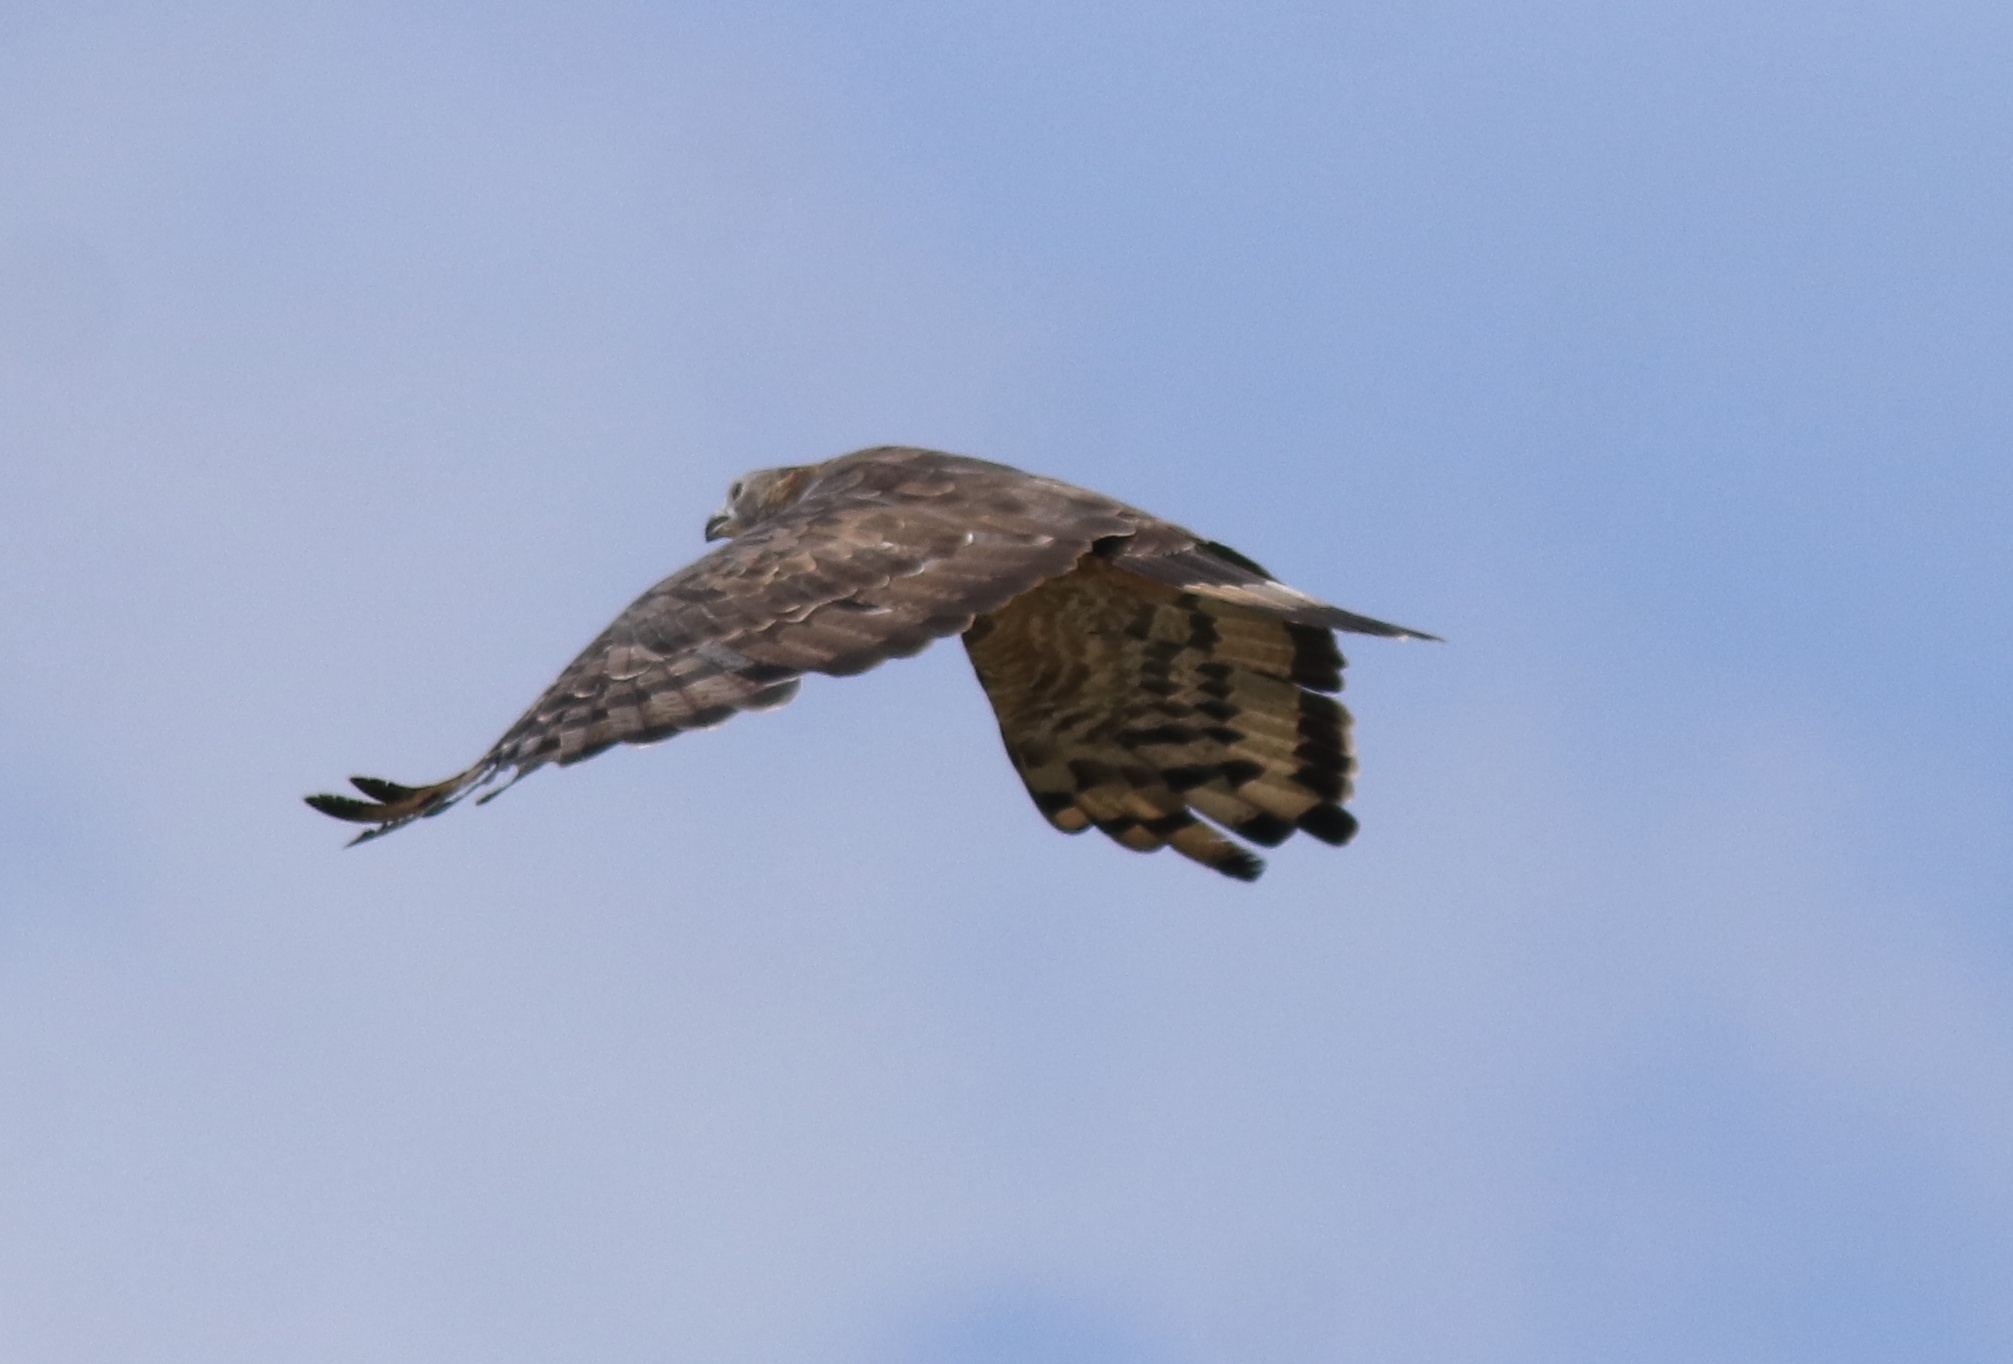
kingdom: Animalia
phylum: Chordata
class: Aves
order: Accipitriformes
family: Accipitridae
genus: Pernis
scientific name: Pernis ptilorhynchus
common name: Crested honey buzzard
